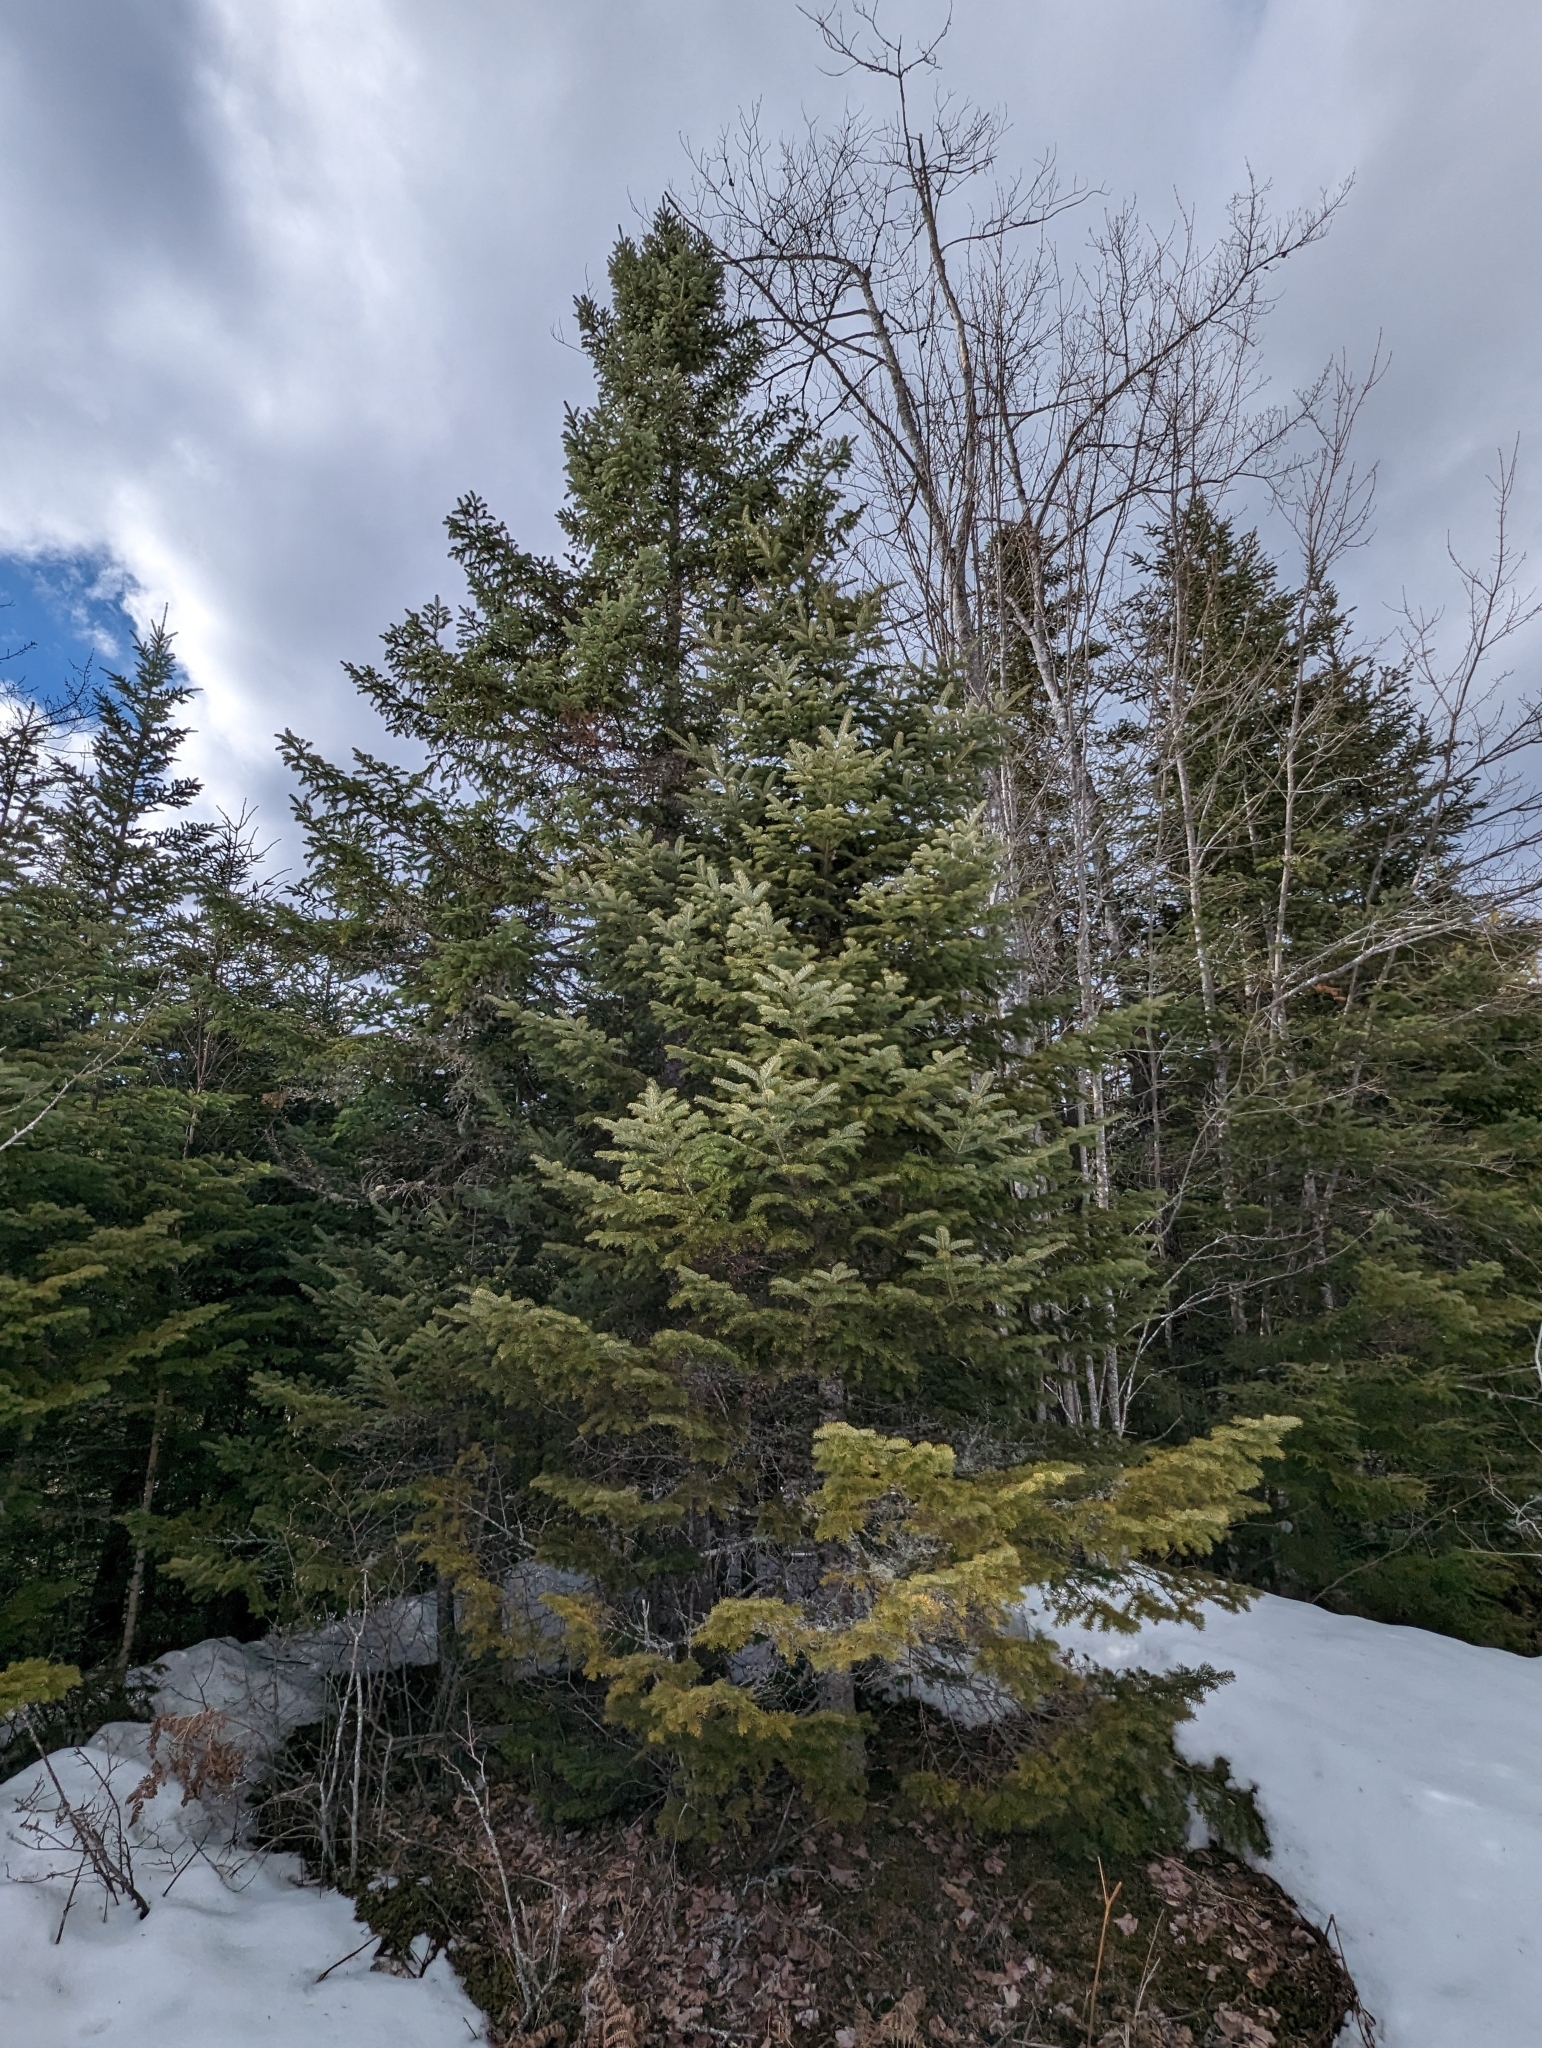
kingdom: Plantae
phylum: Tracheophyta
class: Pinopsida
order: Pinales
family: Pinaceae
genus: Abies
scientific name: Abies balsamea
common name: Balsam fir
